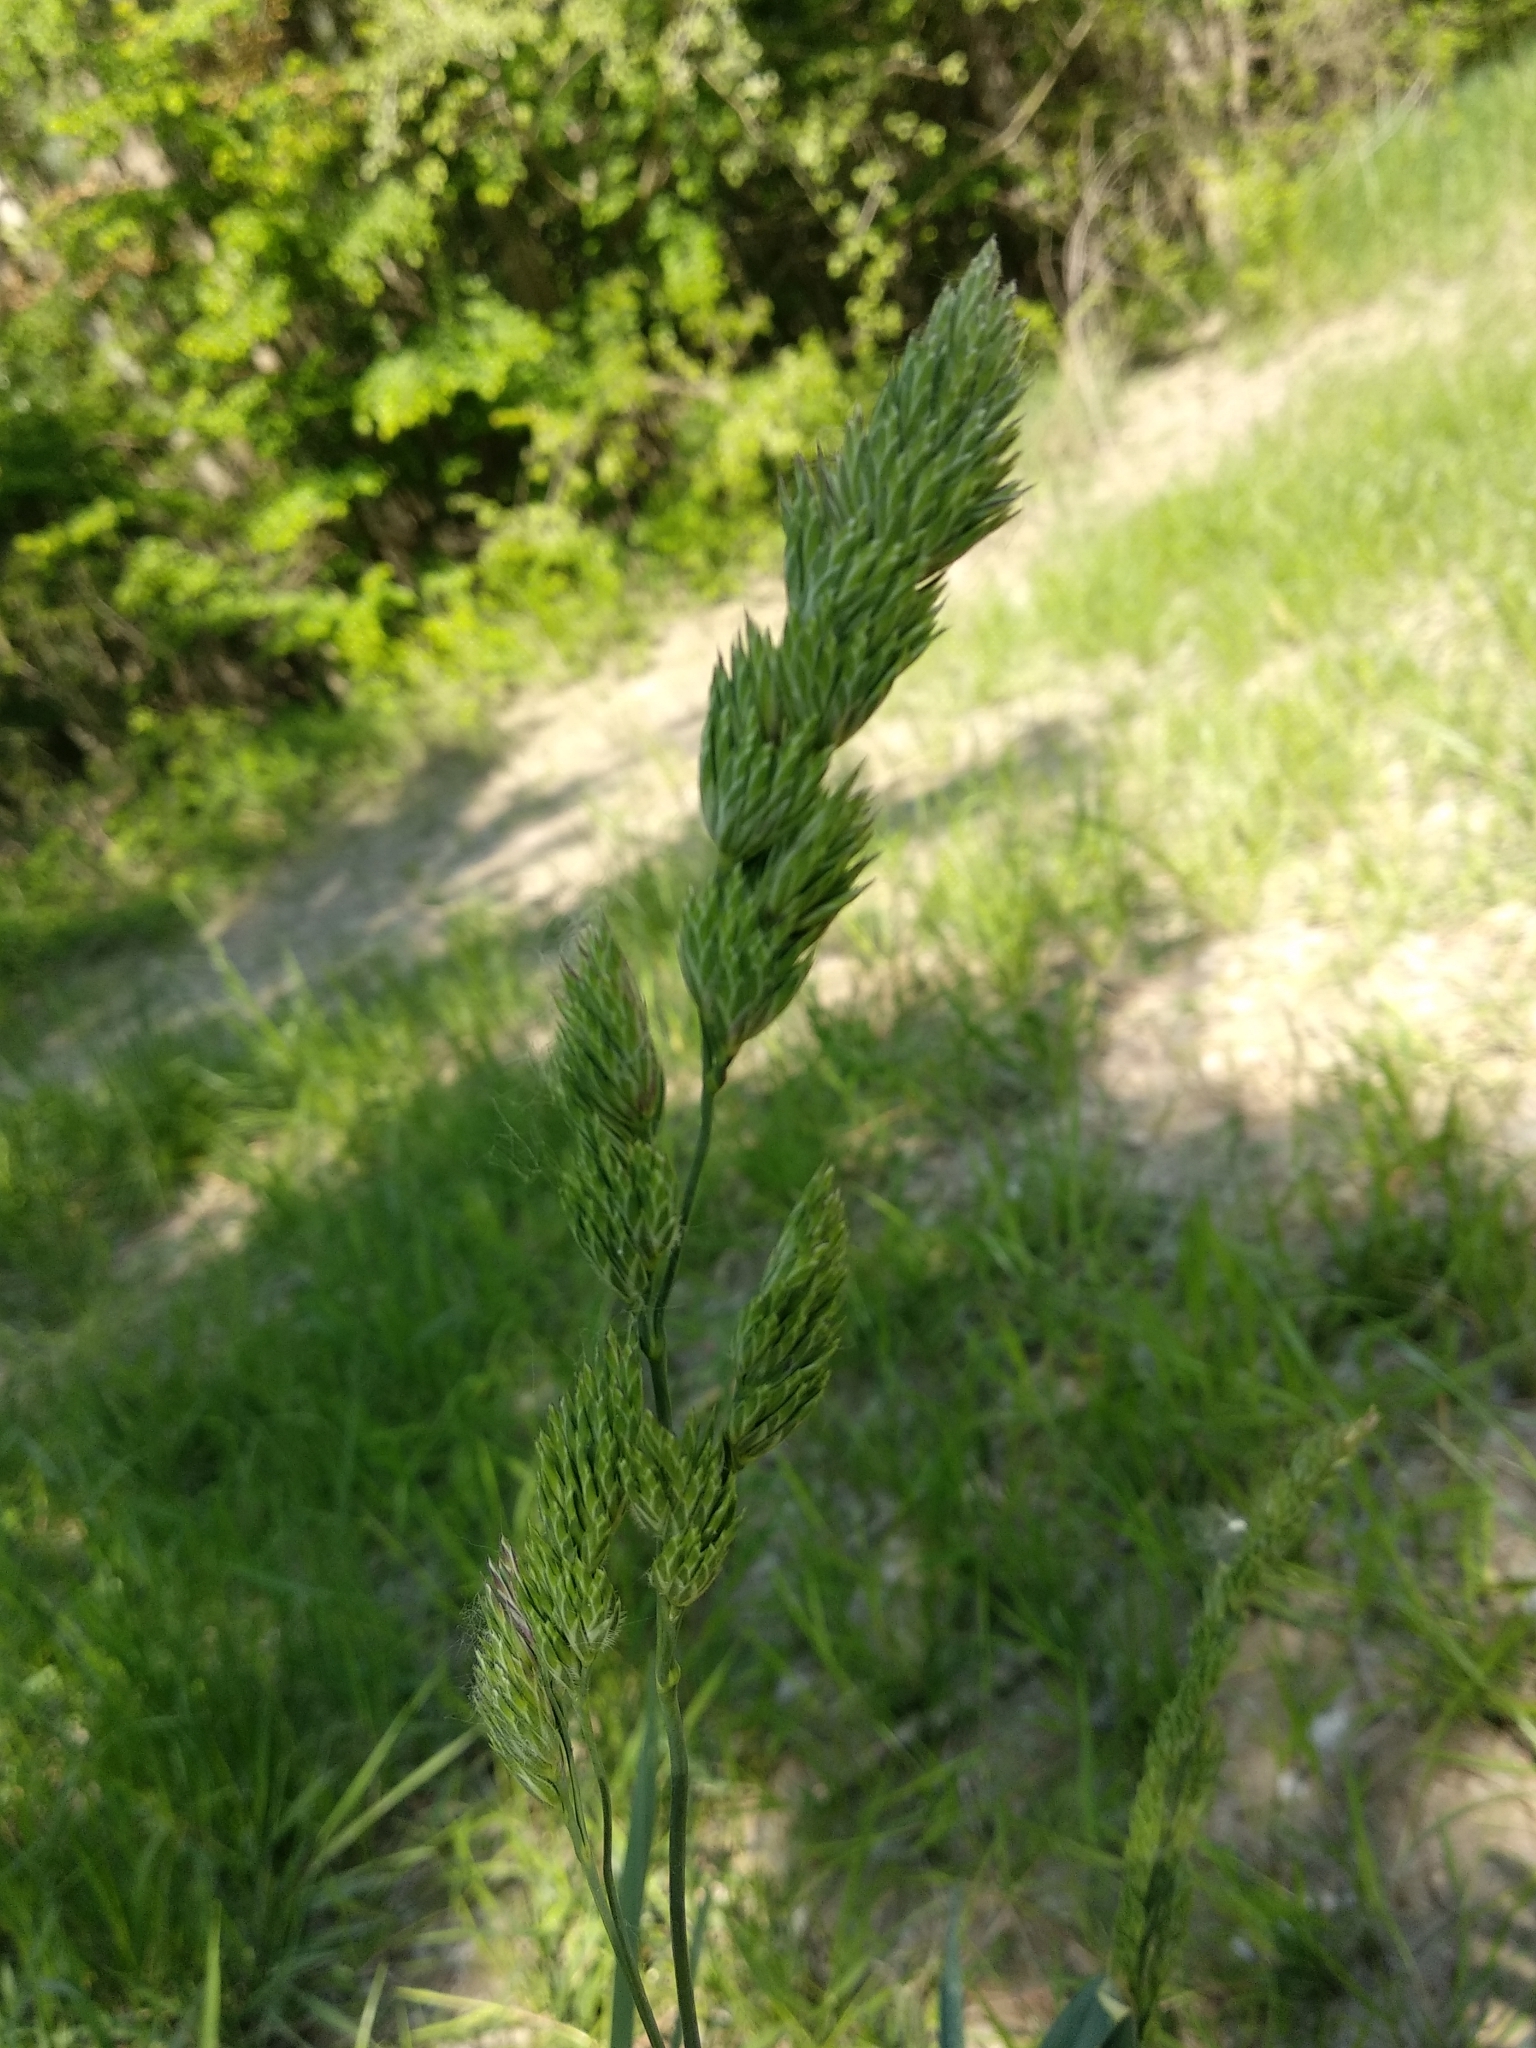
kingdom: Plantae
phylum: Tracheophyta
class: Liliopsida
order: Poales
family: Poaceae
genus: Dactylis
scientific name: Dactylis glomerata
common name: Orchardgrass
